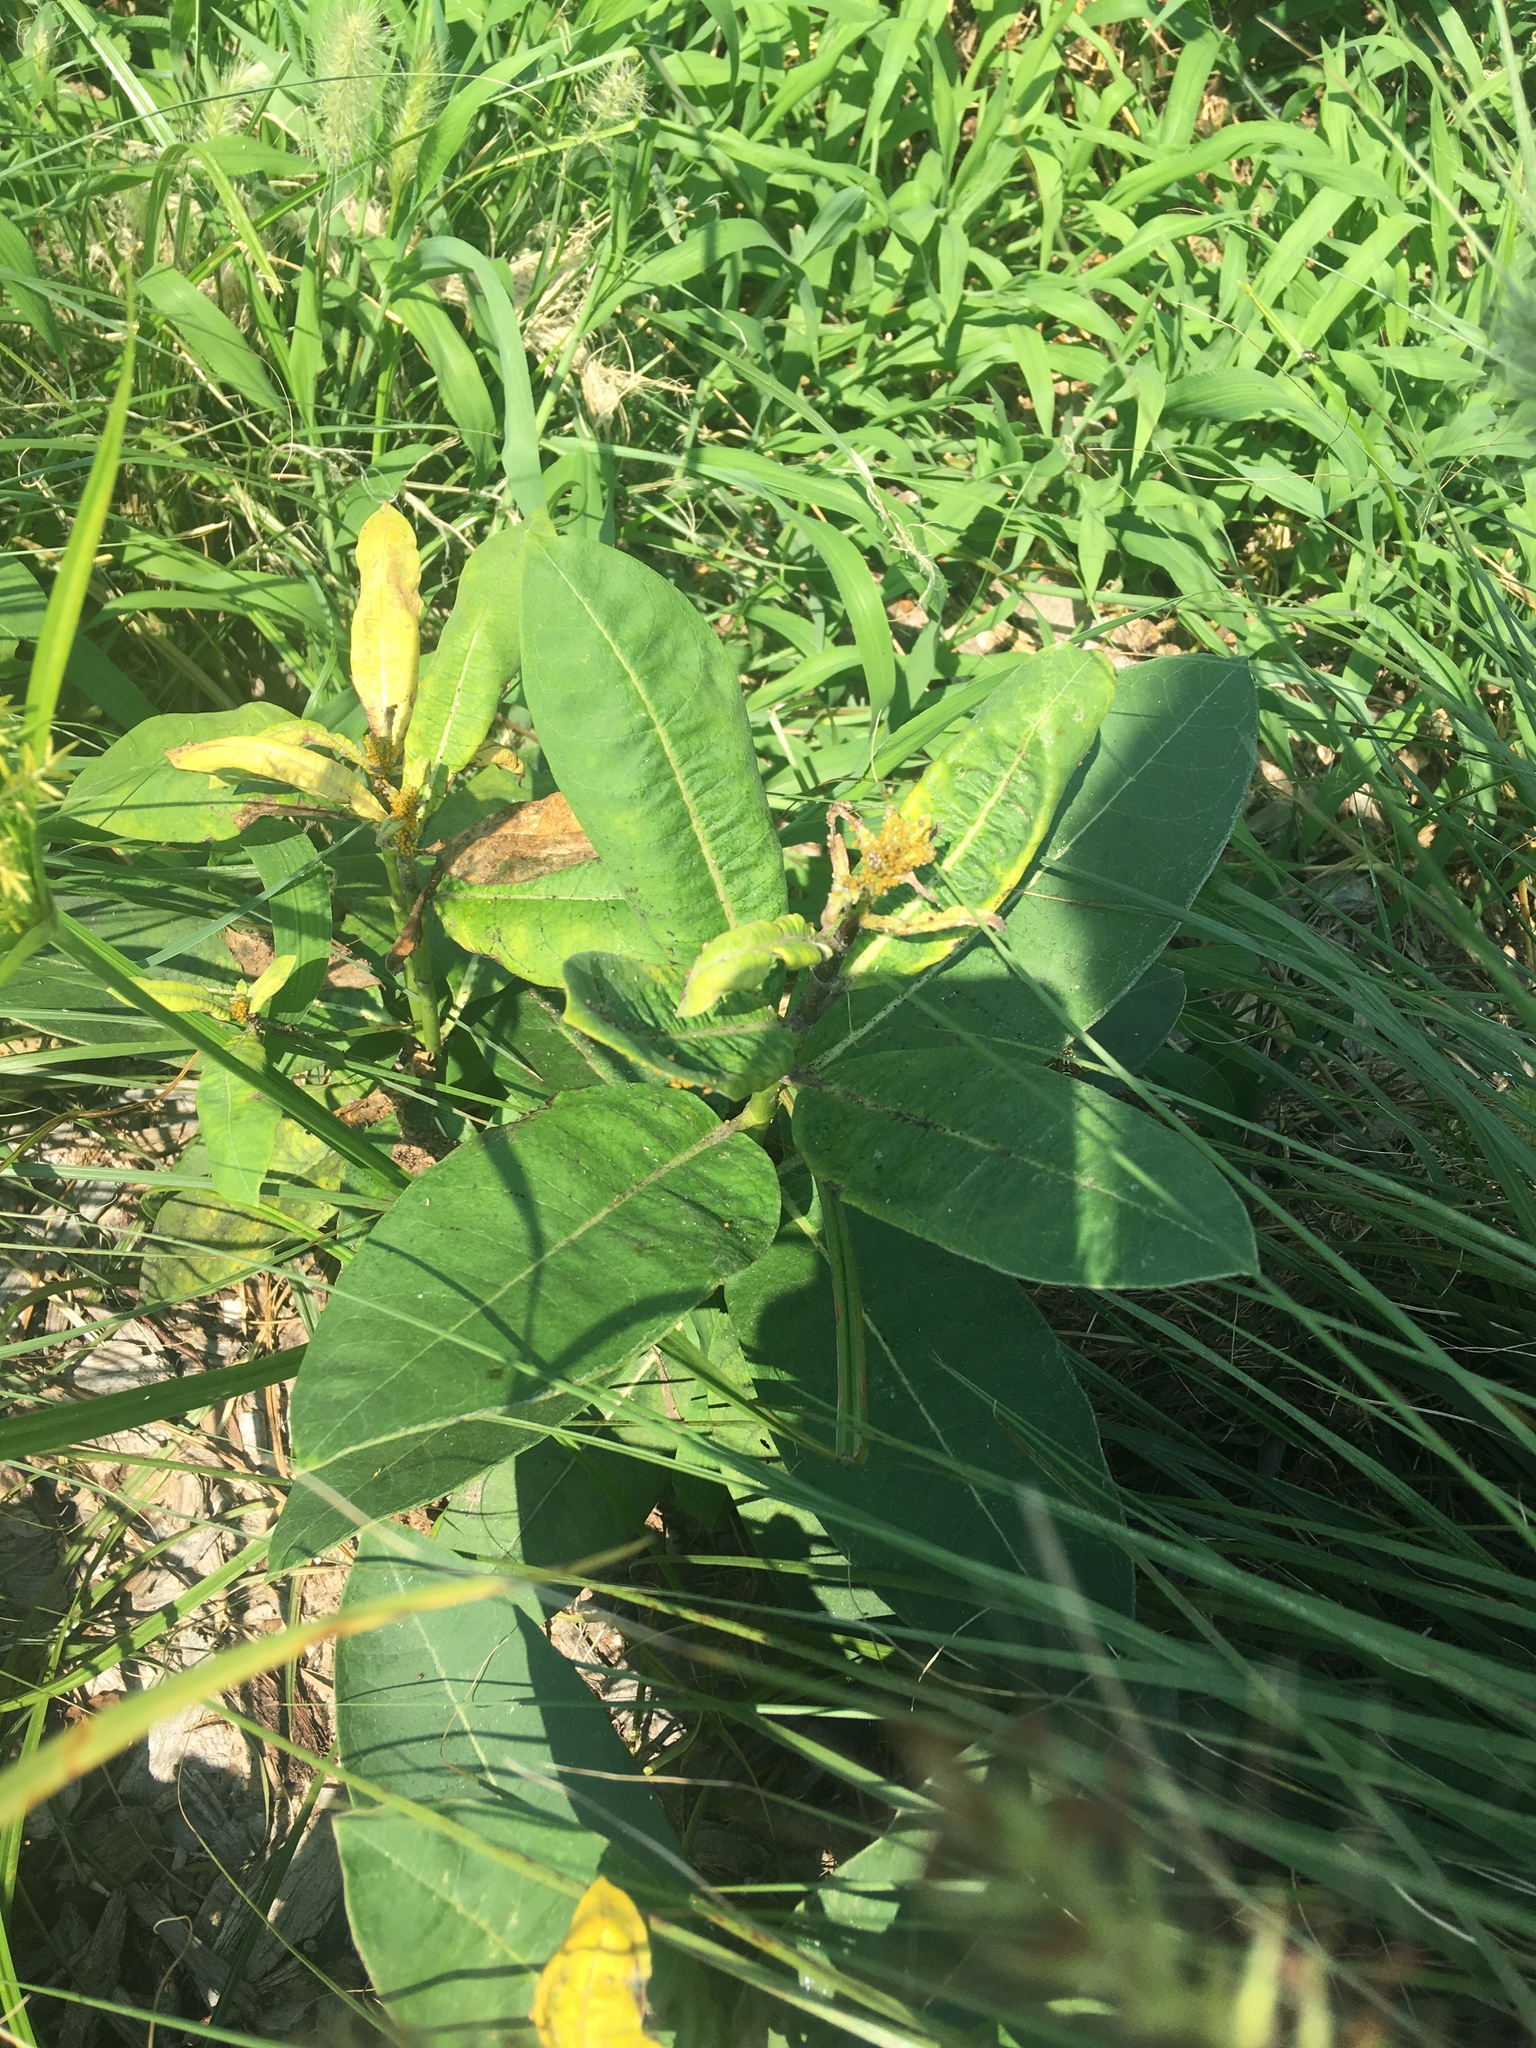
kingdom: Plantae
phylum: Tracheophyta
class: Magnoliopsida
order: Gentianales
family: Apocynaceae
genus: Asclepias
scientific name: Asclepias syriaca
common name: Common milkweed
